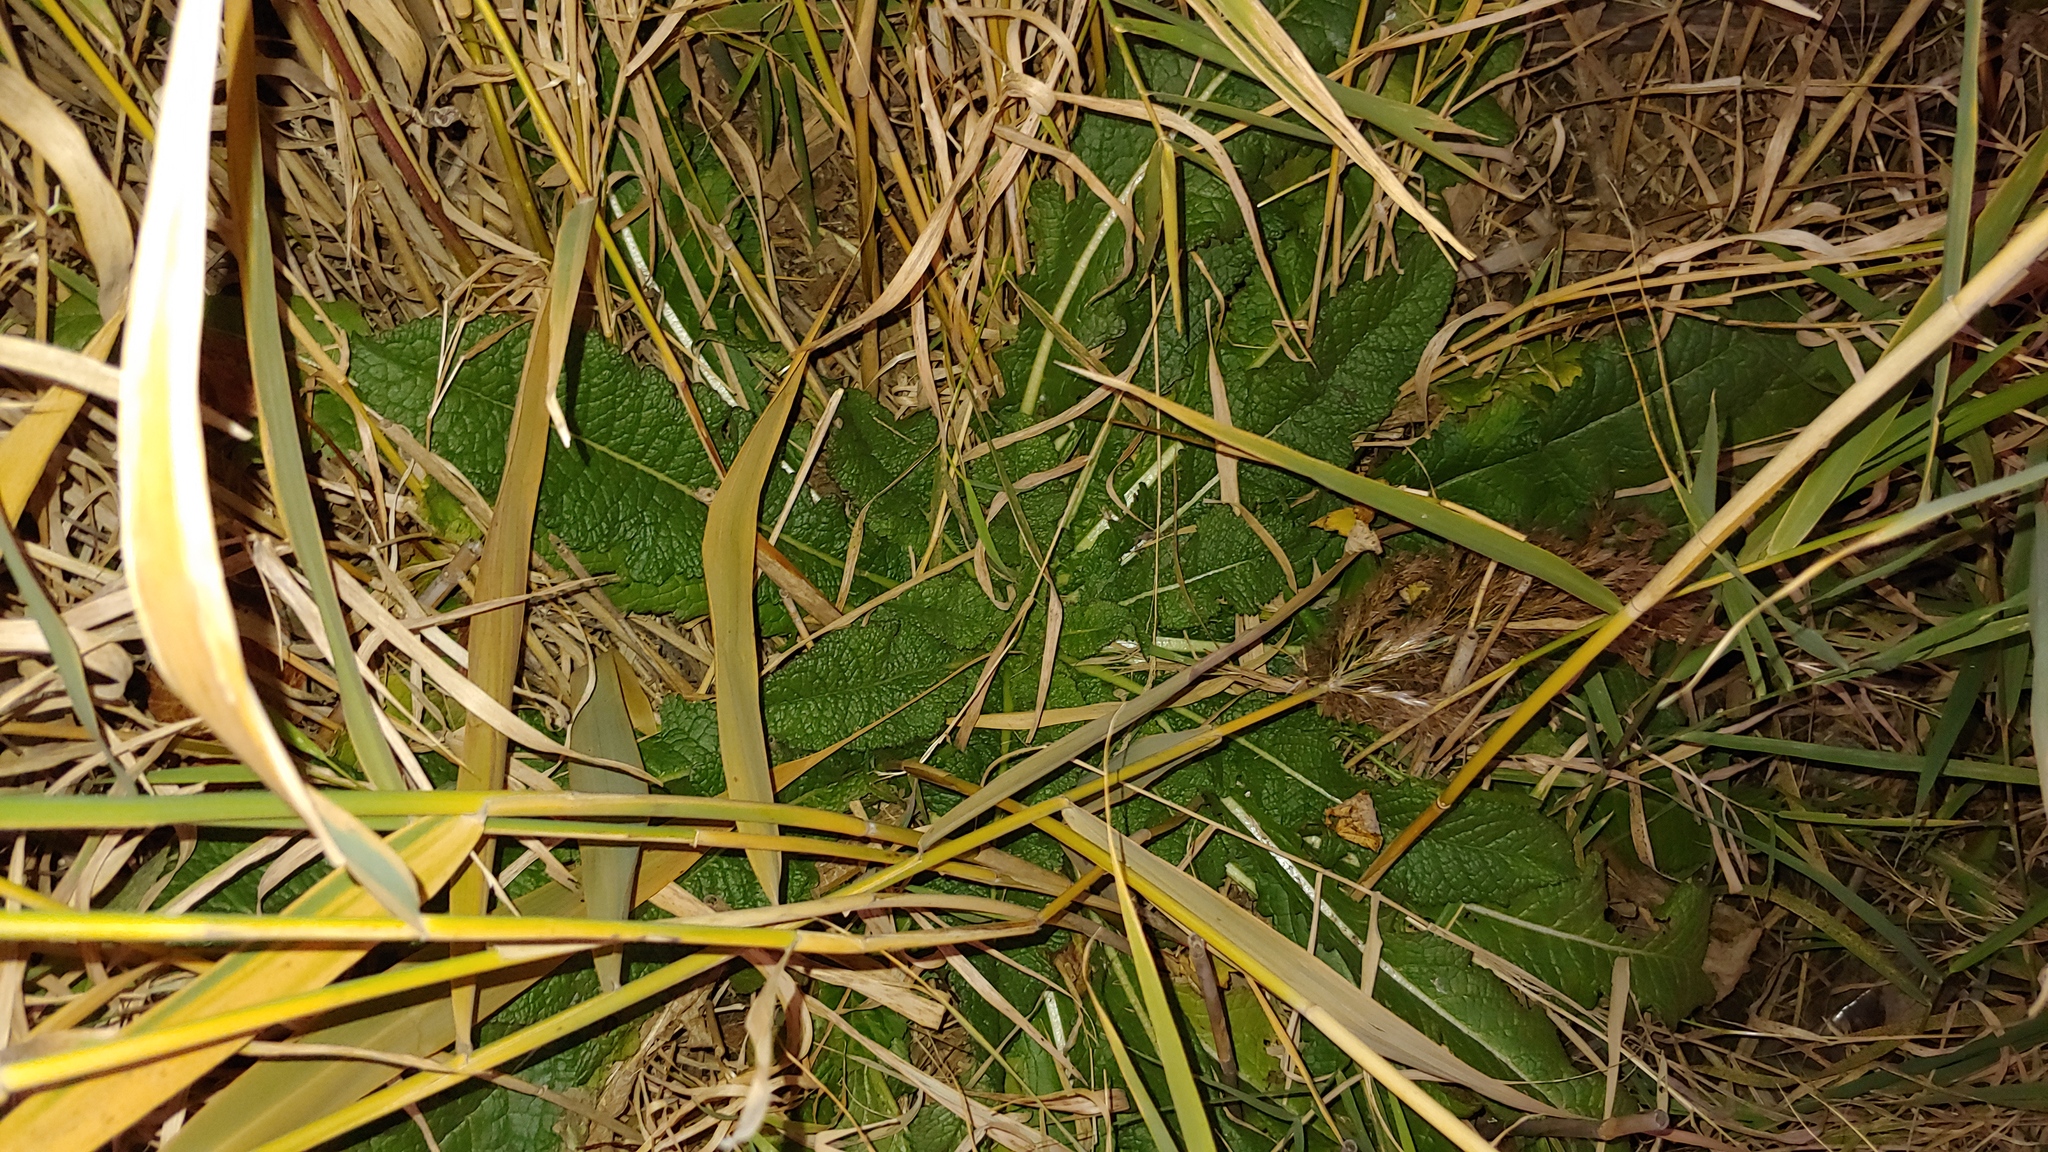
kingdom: Plantae
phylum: Tracheophyta
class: Magnoliopsida
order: Dipsacales
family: Caprifoliaceae
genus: Dipsacus
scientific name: Dipsacus laciniatus
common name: Cut-leaved teasel
